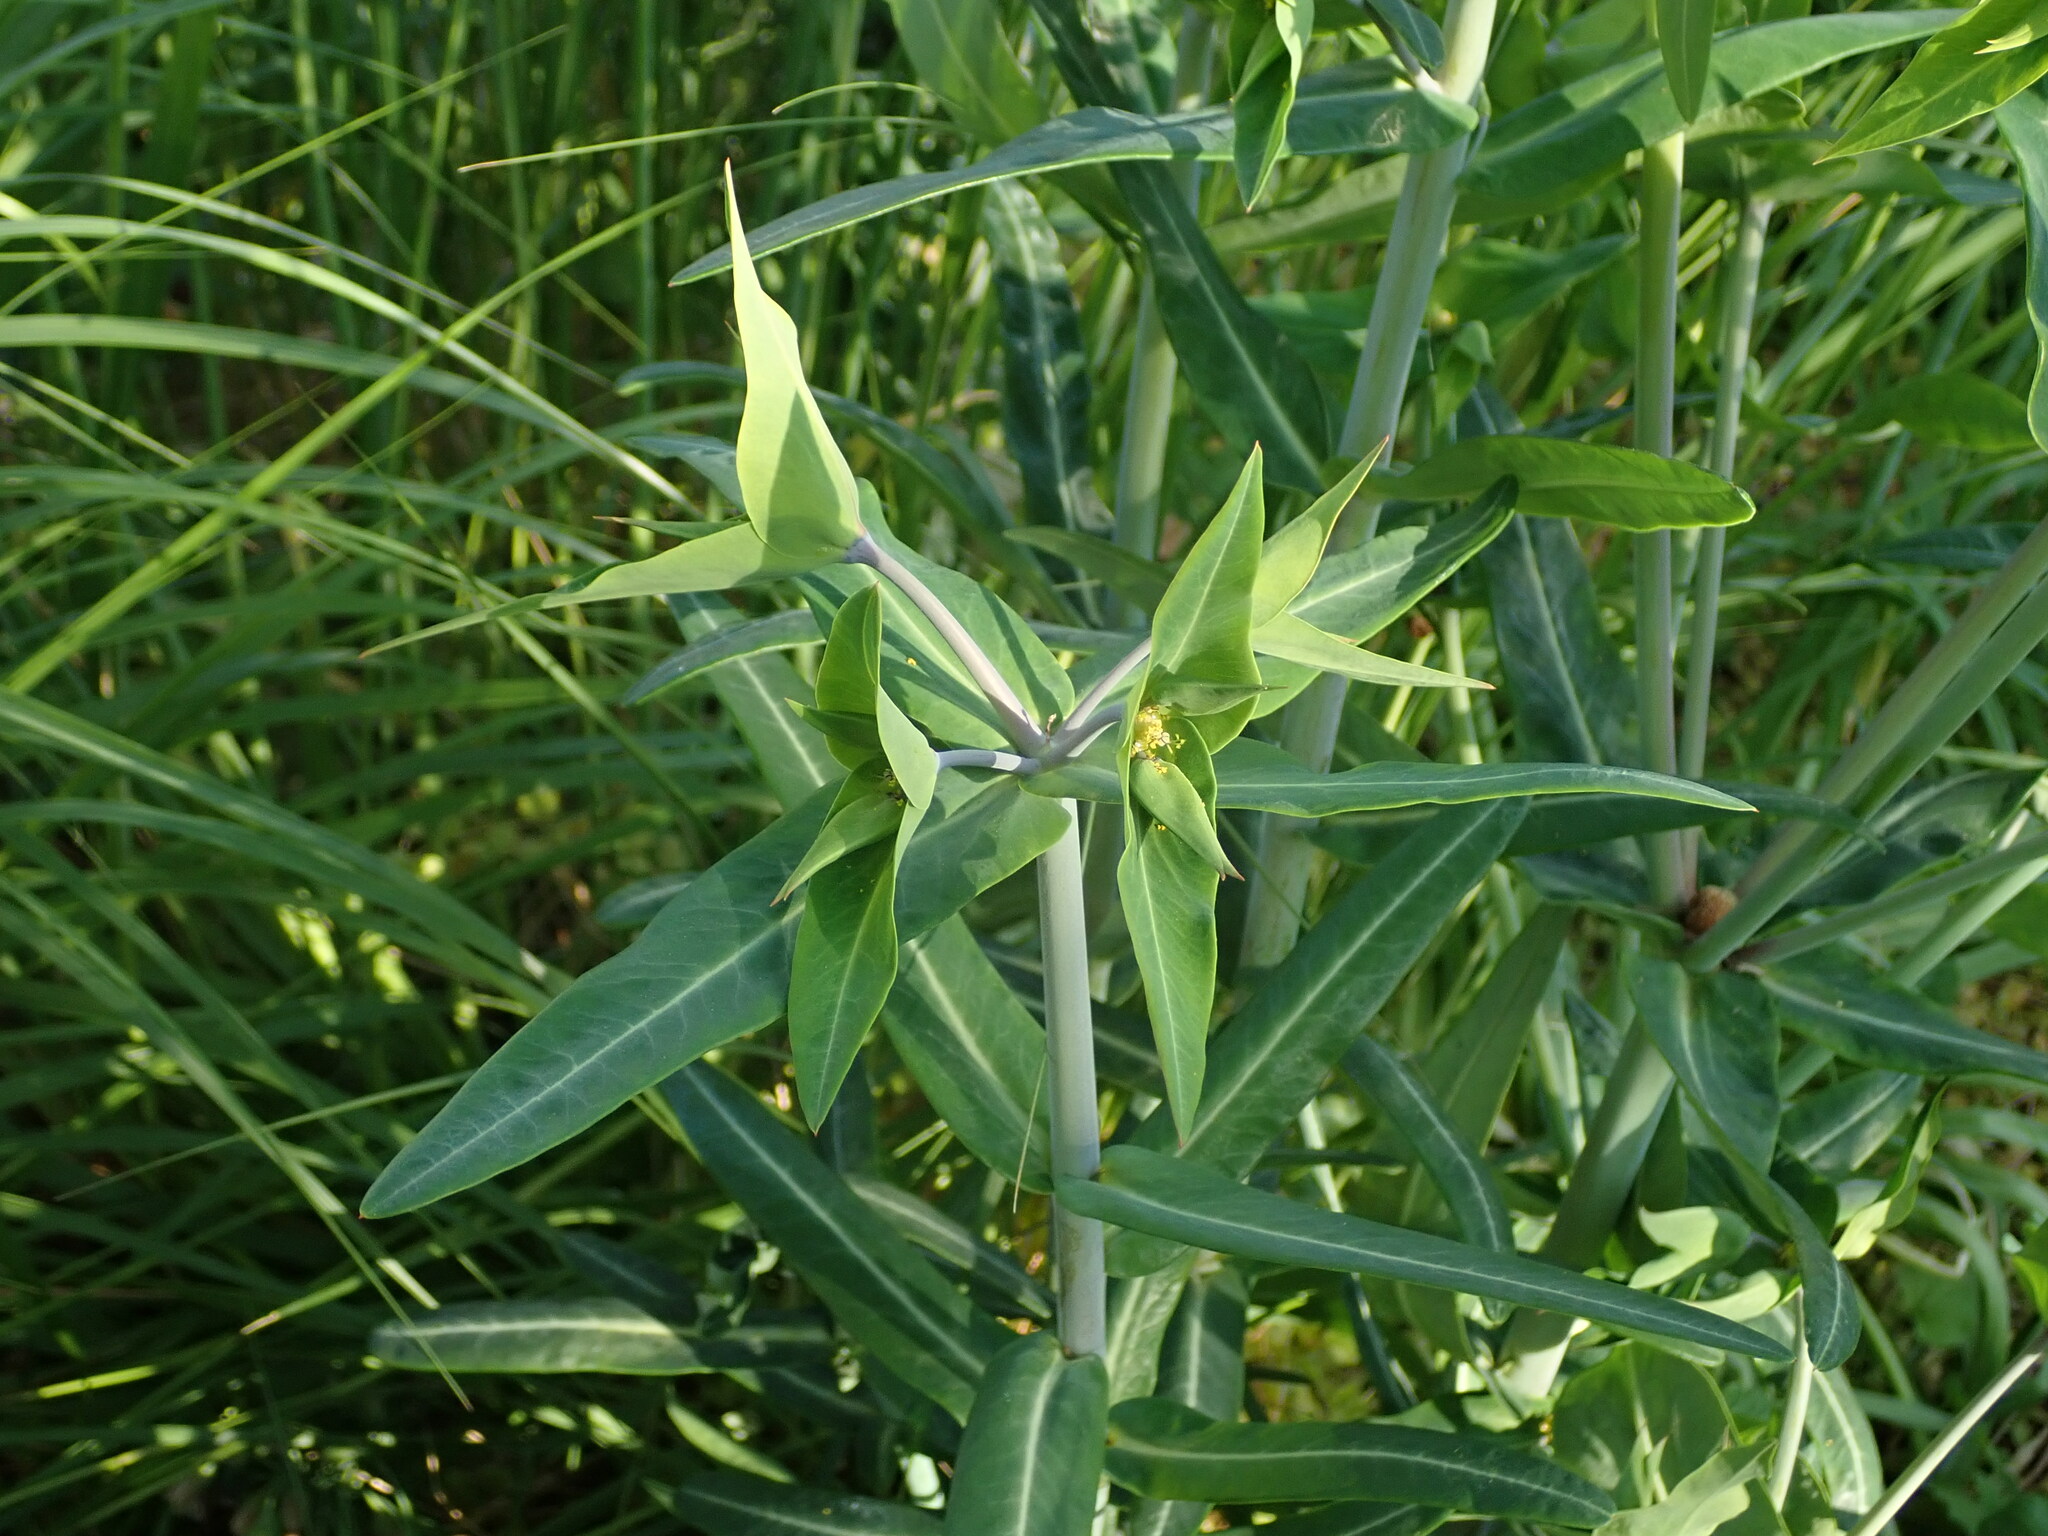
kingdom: Plantae
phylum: Tracheophyta
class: Magnoliopsida
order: Malpighiales
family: Euphorbiaceae
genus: Euphorbia
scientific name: Euphorbia lathyris
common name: Caper spurge
